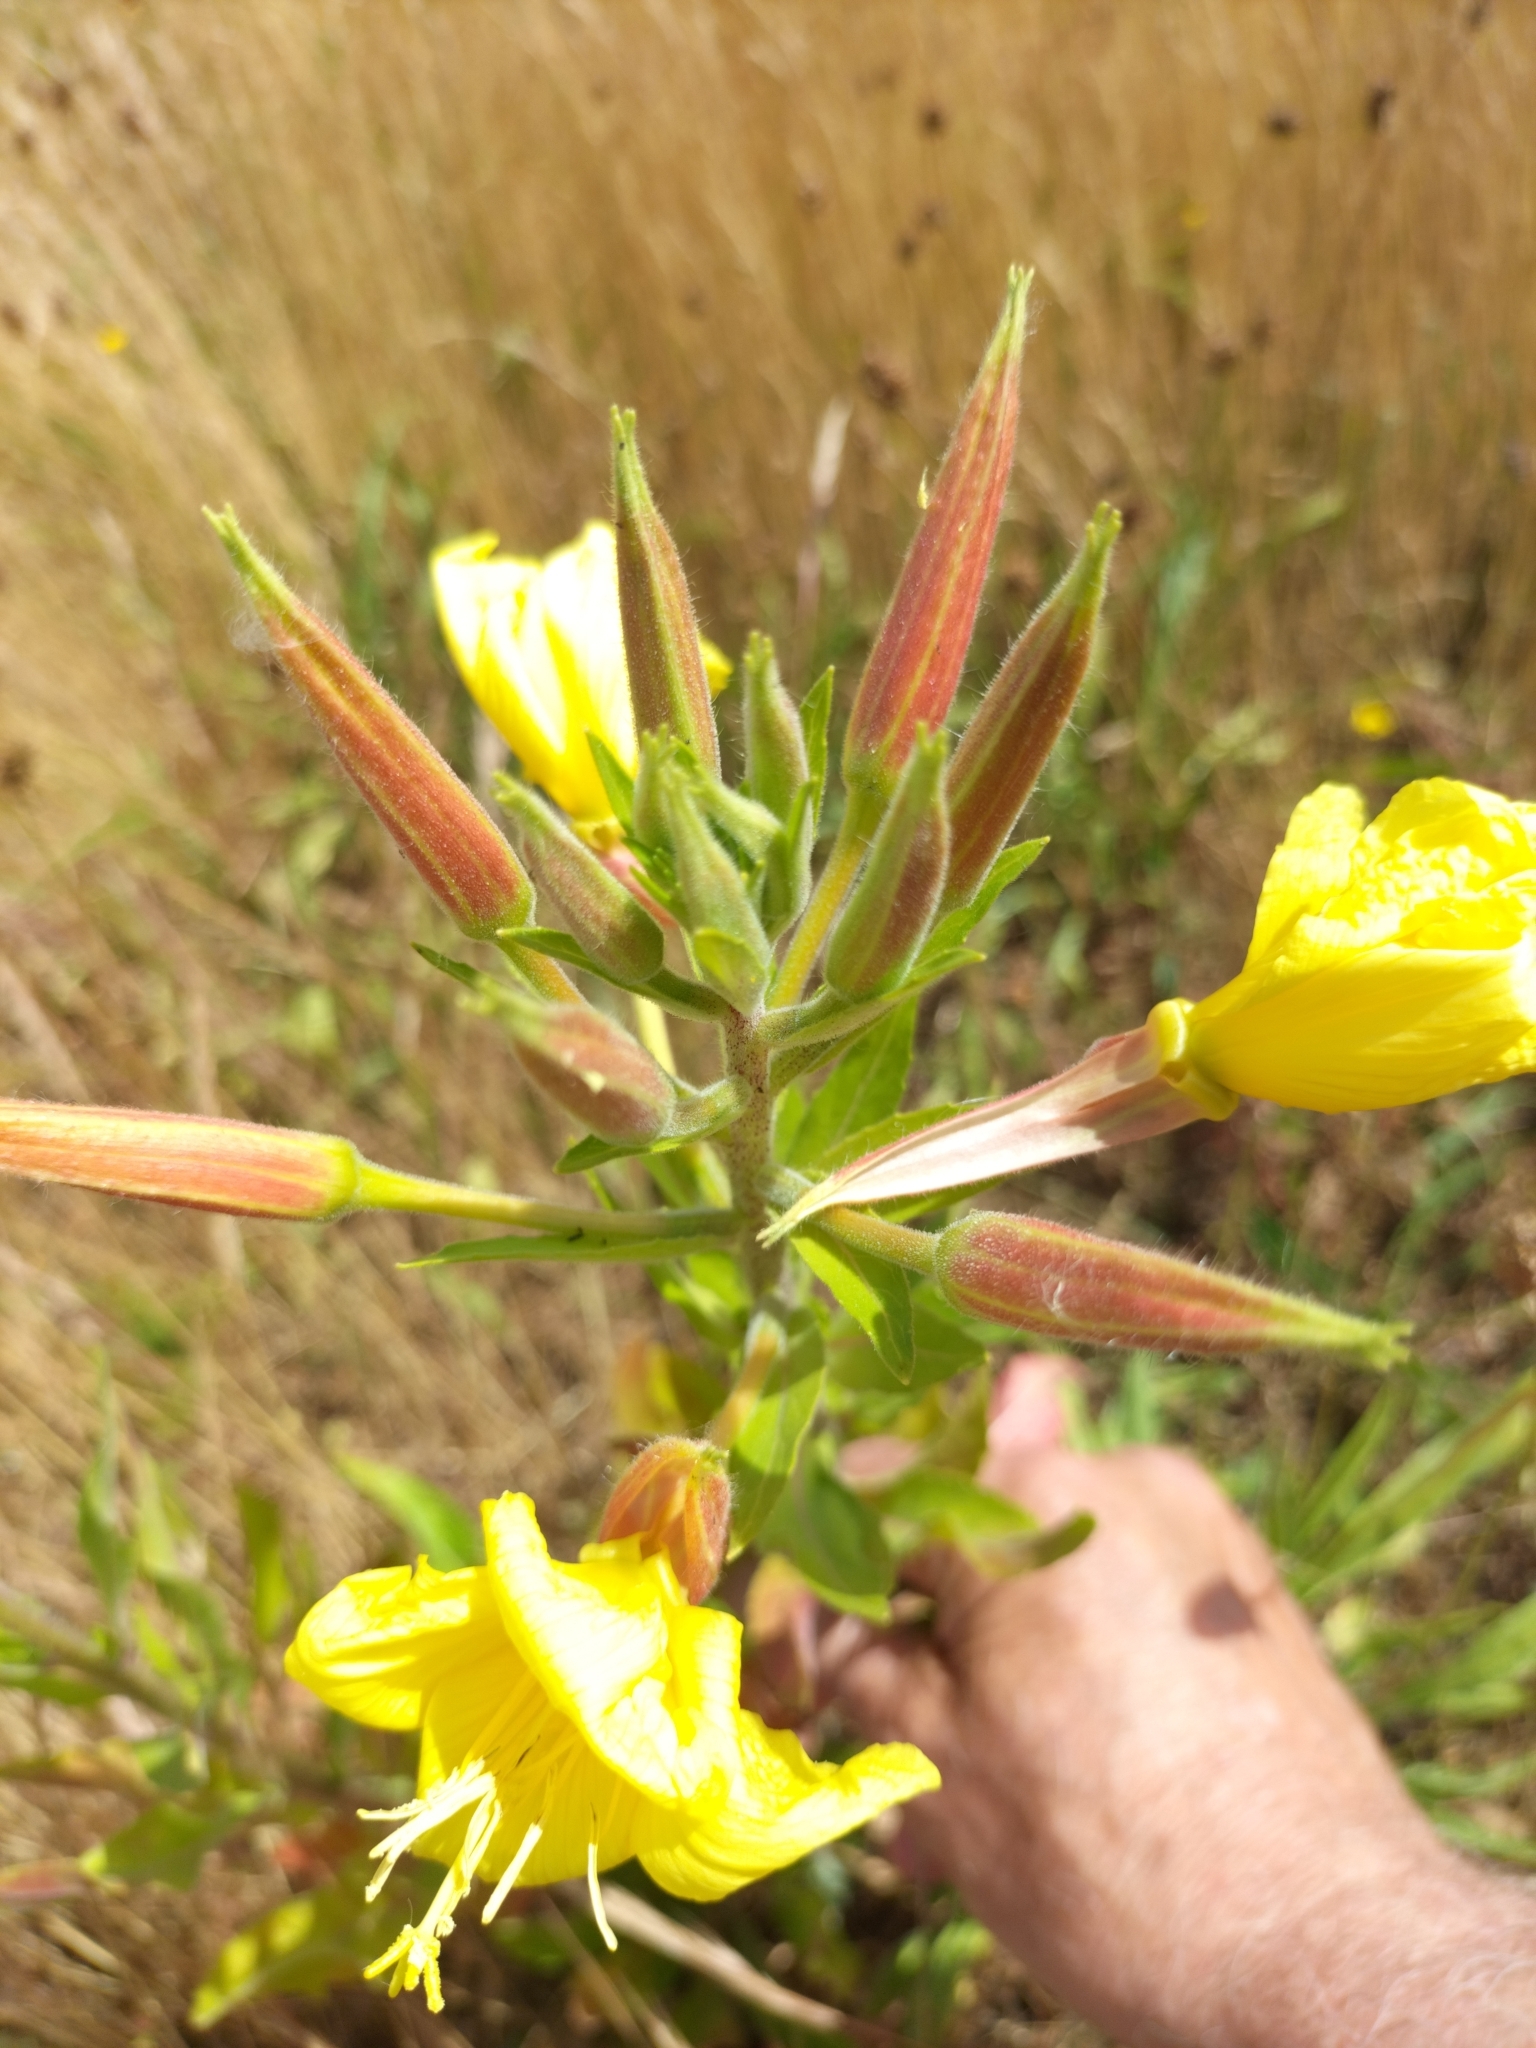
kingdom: Plantae
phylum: Tracheophyta
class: Magnoliopsida
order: Myrtales
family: Onagraceae
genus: Oenothera
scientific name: Oenothera glazioviana
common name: Large-flowered evening-primrose
